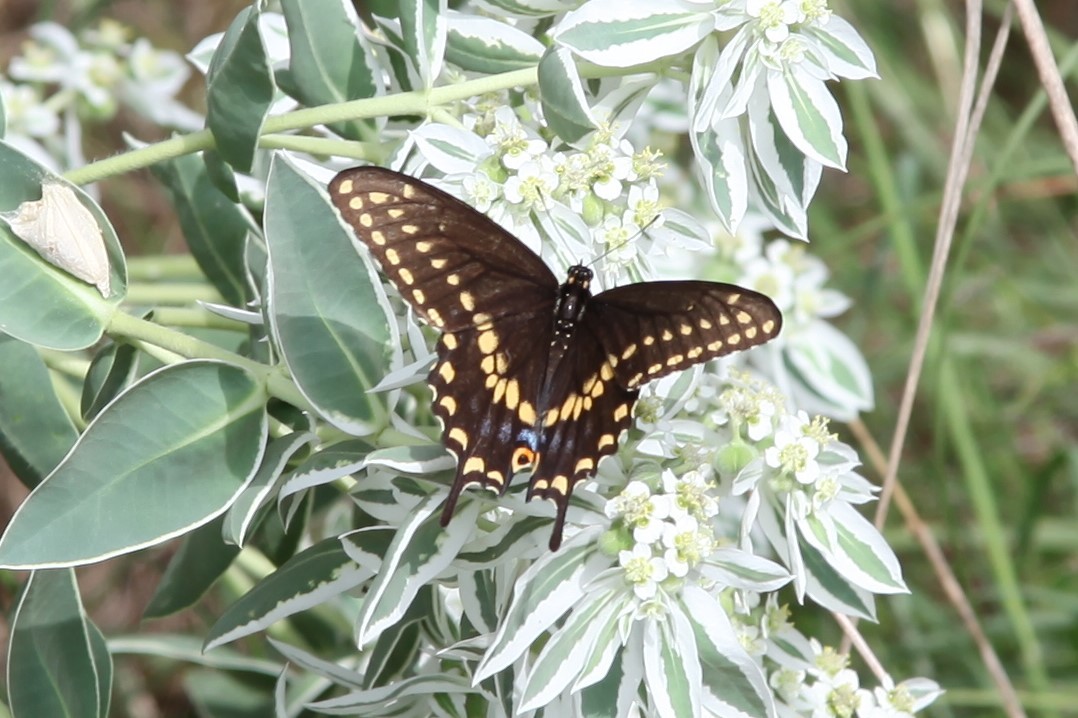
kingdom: Animalia
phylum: Arthropoda
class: Insecta
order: Lepidoptera
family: Papilionidae
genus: Papilio
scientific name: Papilio polyxenes
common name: Black swallowtail
